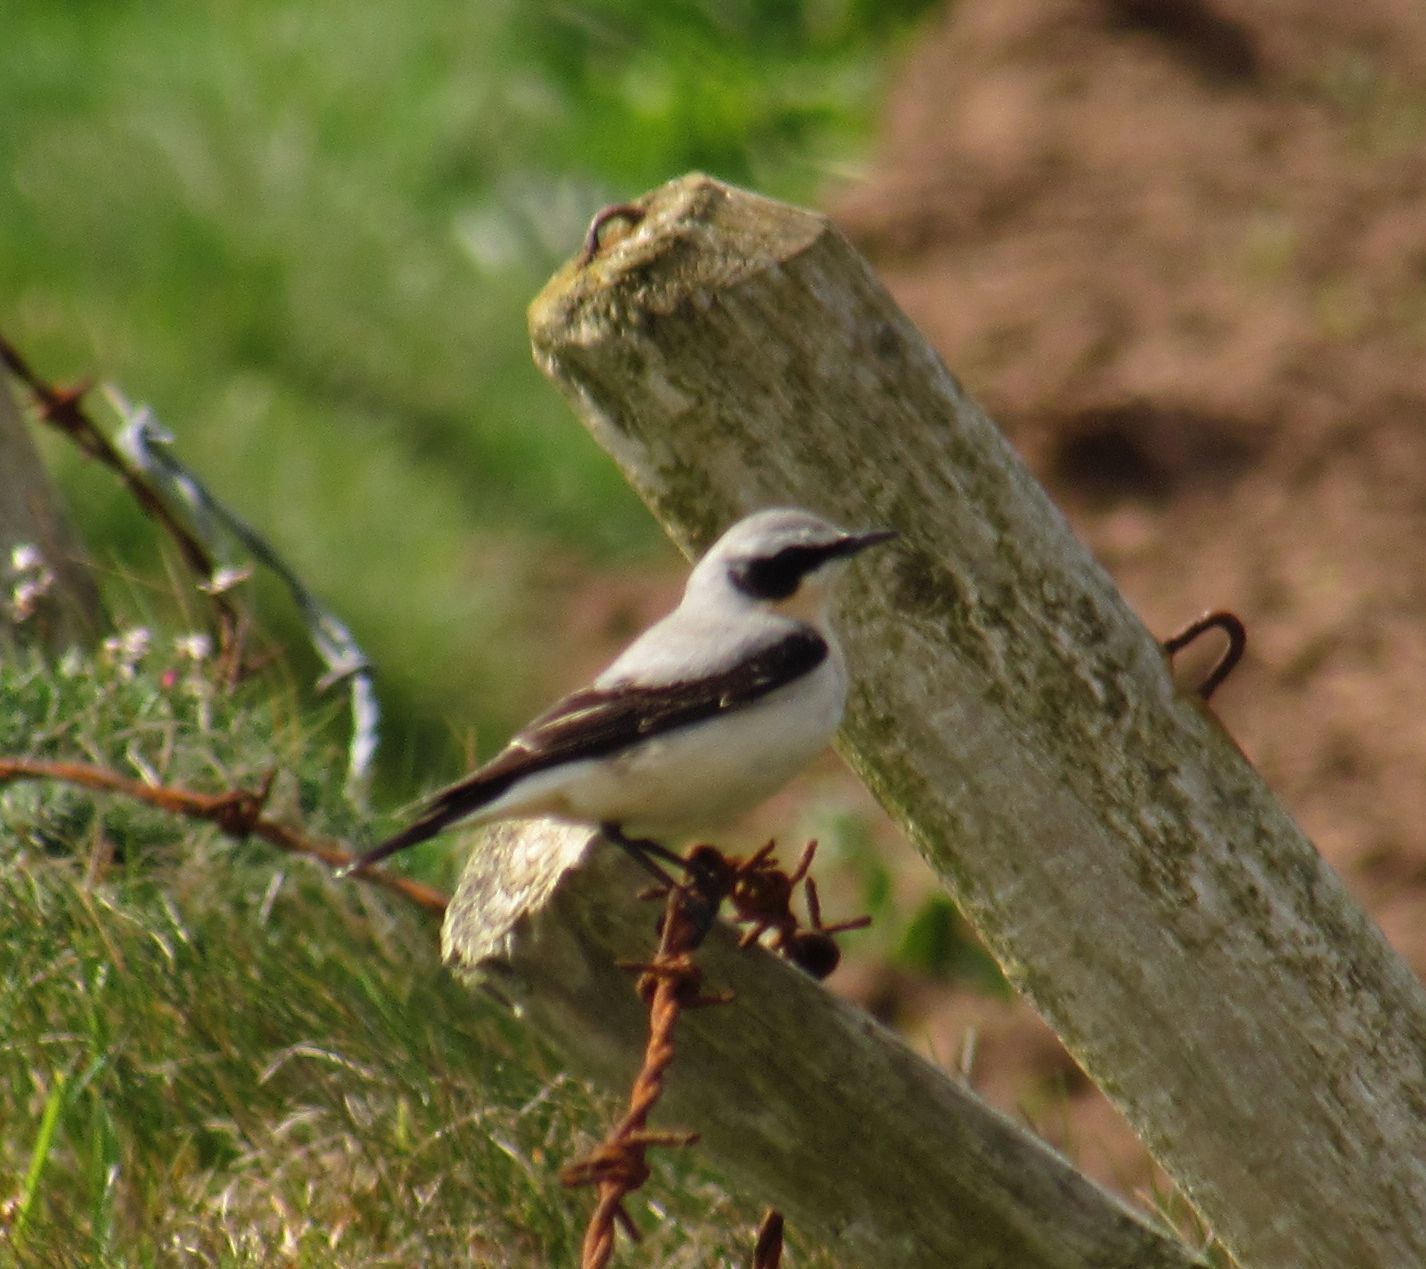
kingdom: Animalia
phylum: Chordata
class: Aves
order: Passeriformes
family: Muscicapidae
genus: Oenanthe
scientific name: Oenanthe oenanthe
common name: Northern wheatear
